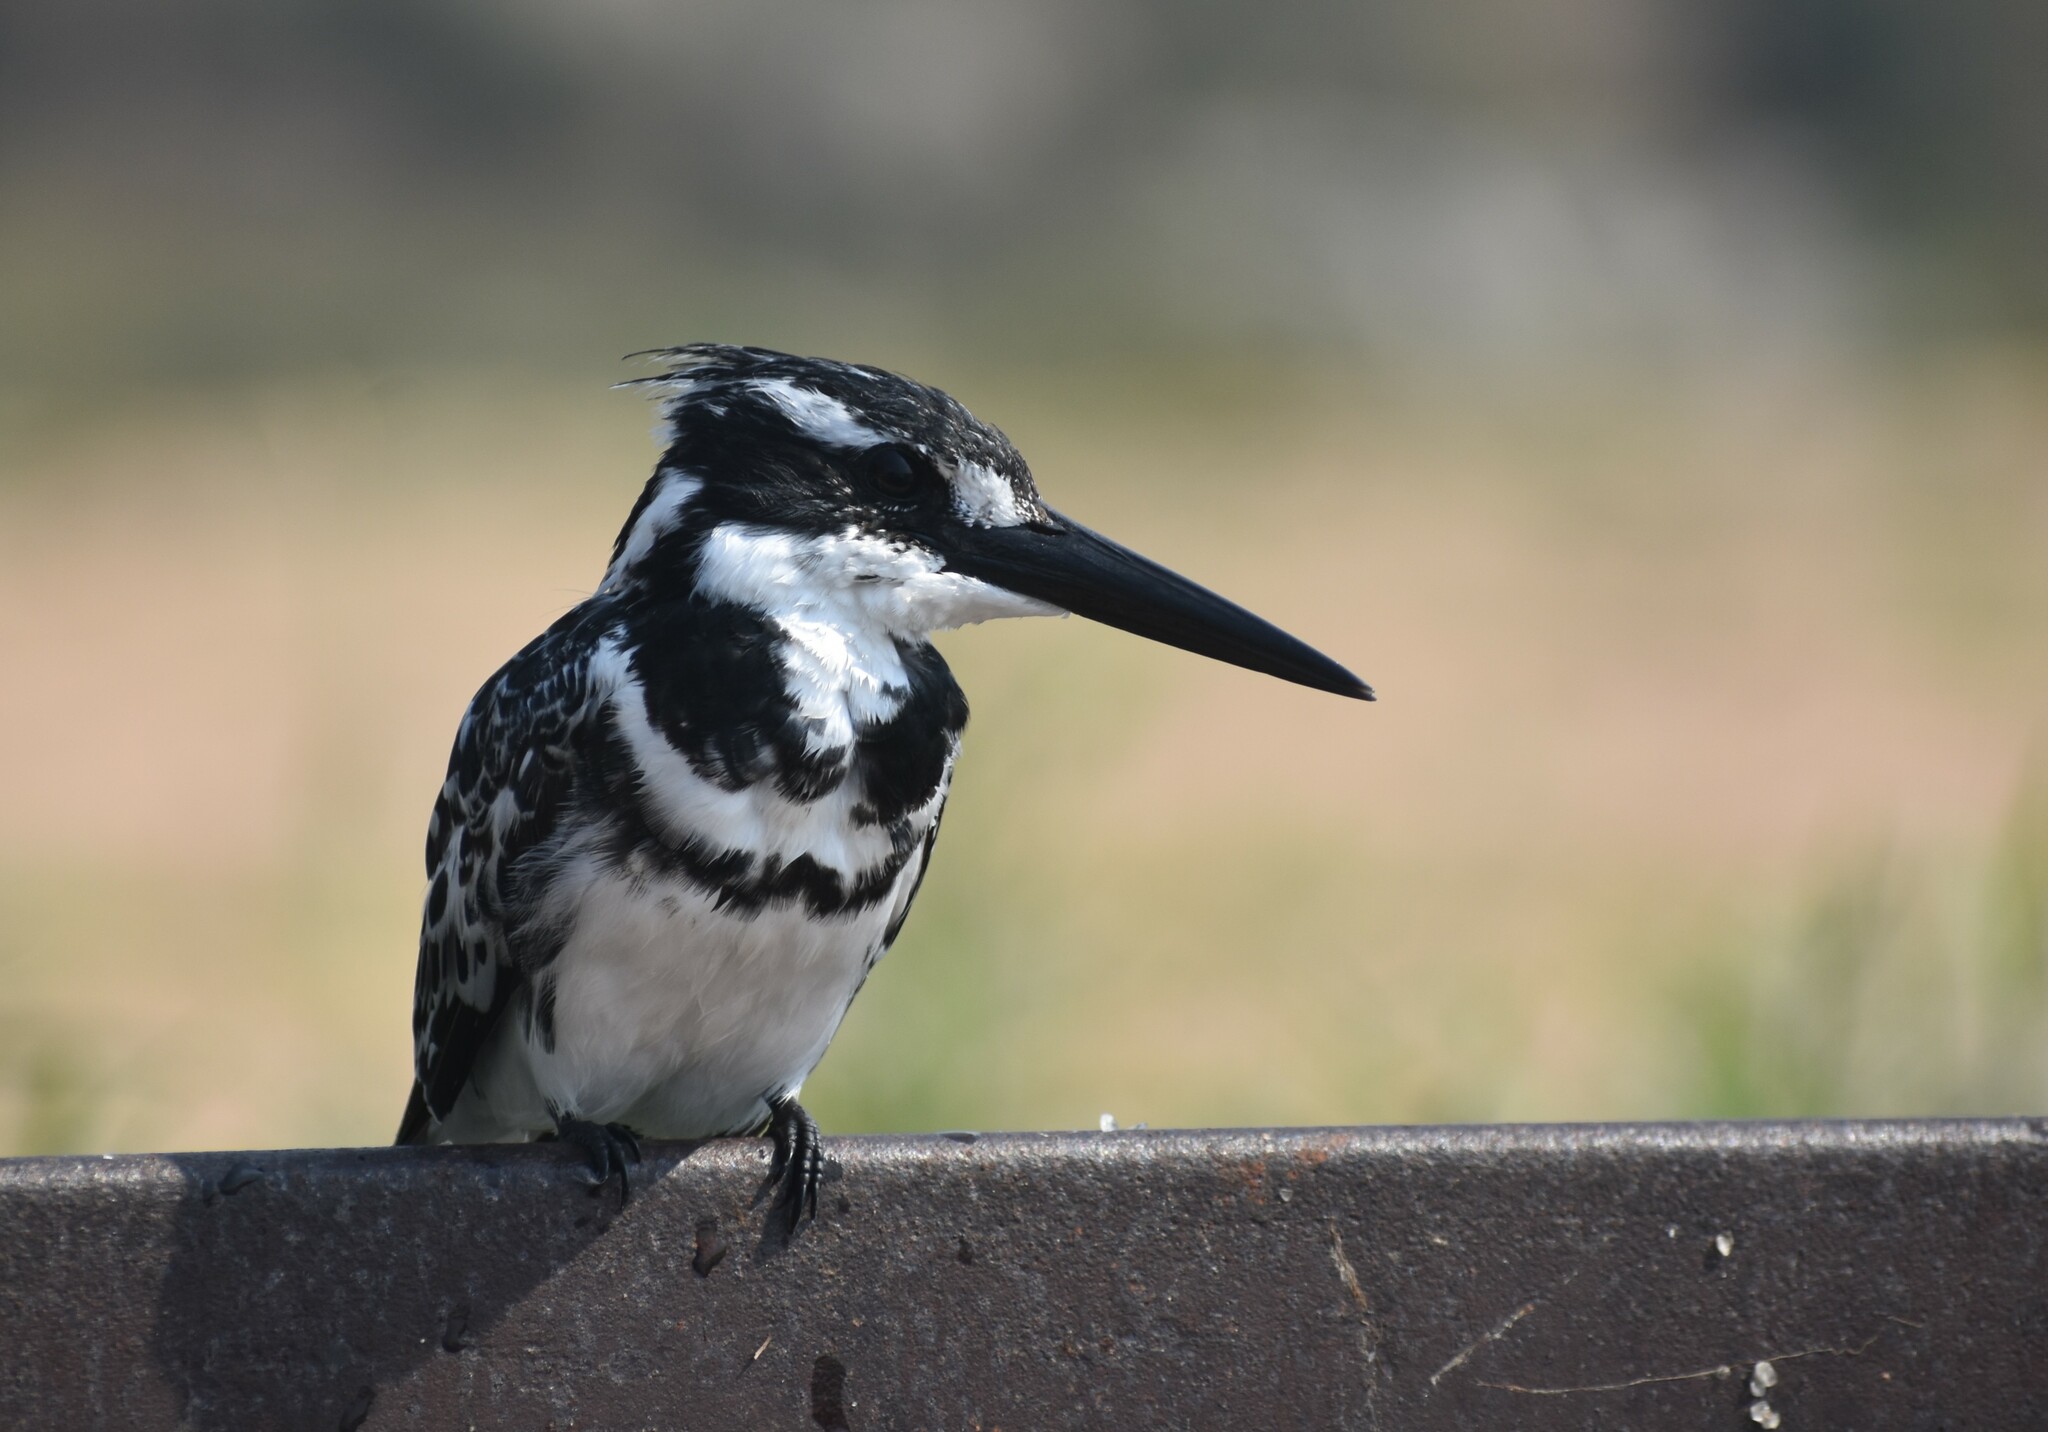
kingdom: Animalia
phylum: Chordata
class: Aves
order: Coraciiformes
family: Alcedinidae
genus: Ceryle
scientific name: Ceryle rudis
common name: Pied kingfisher
